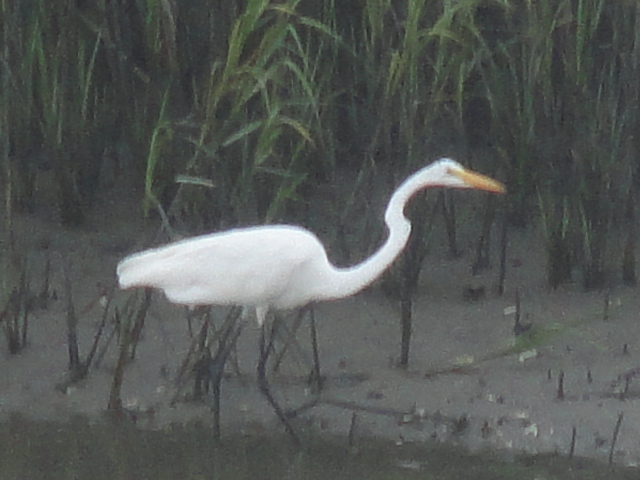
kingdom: Animalia
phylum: Chordata
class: Aves
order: Pelecaniformes
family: Ardeidae
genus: Ardea
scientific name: Ardea alba
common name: Great egret
